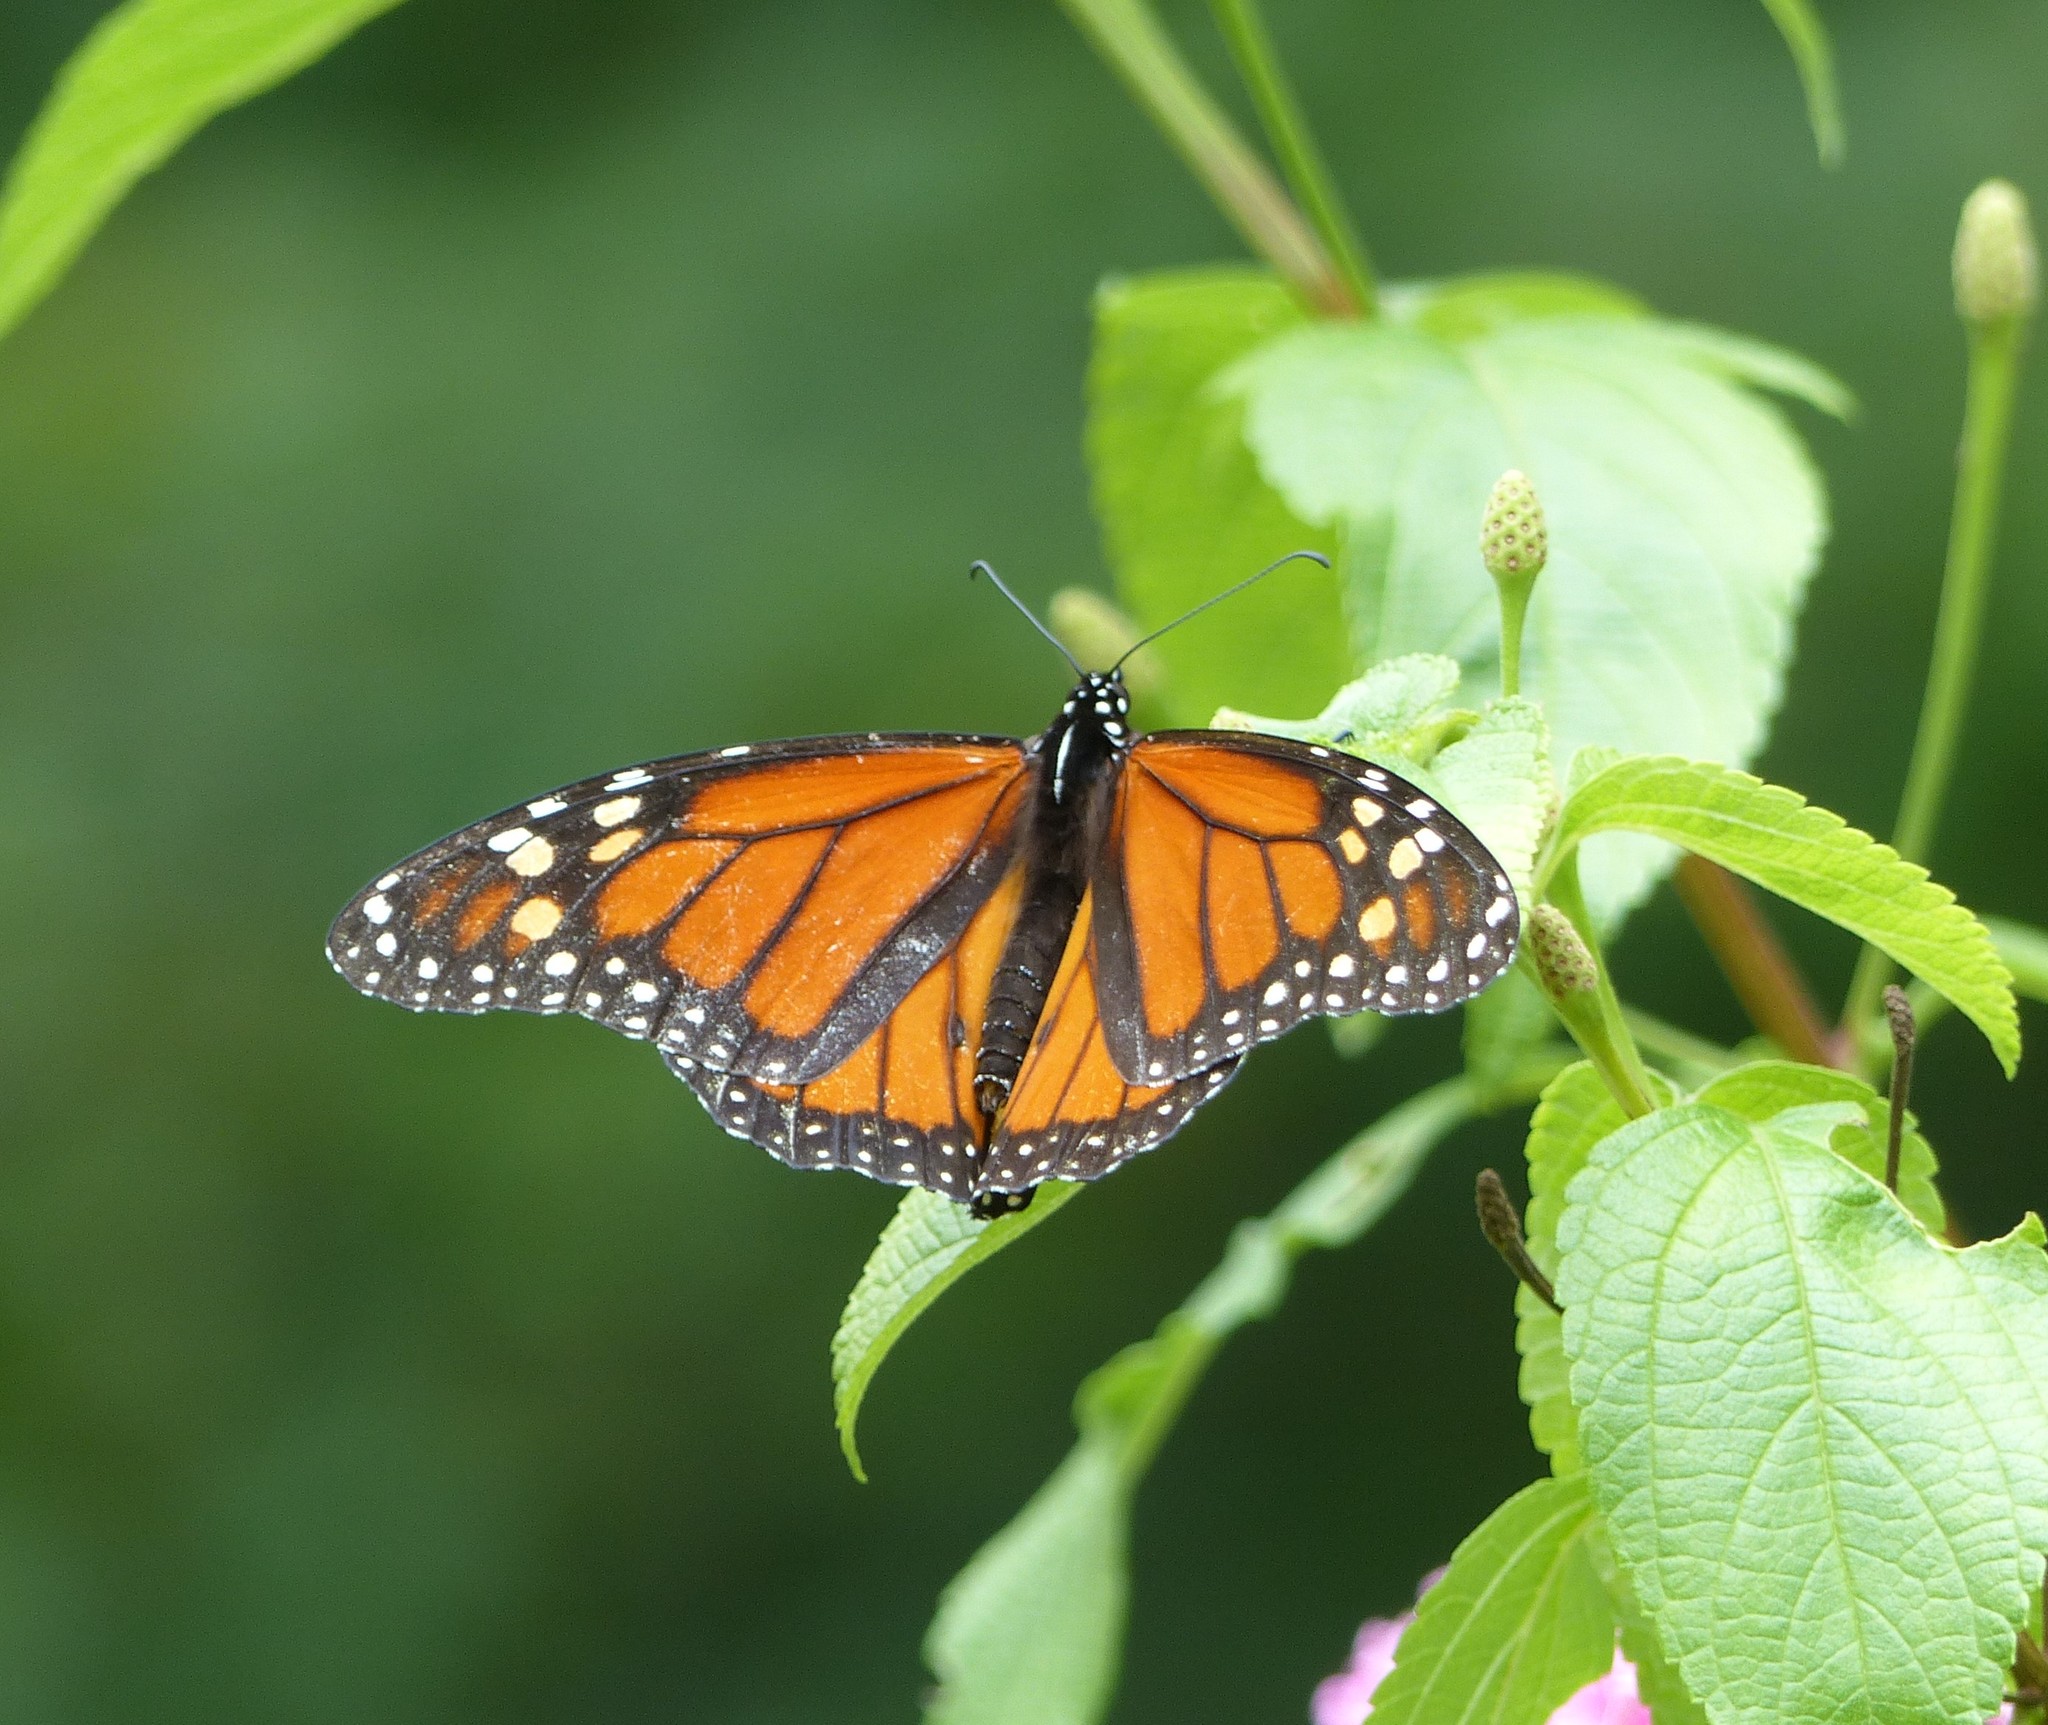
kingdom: Animalia
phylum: Arthropoda
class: Insecta
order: Lepidoptera
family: Nymphalidae
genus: Danaus
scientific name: Danaus plexippus
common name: Monarch
